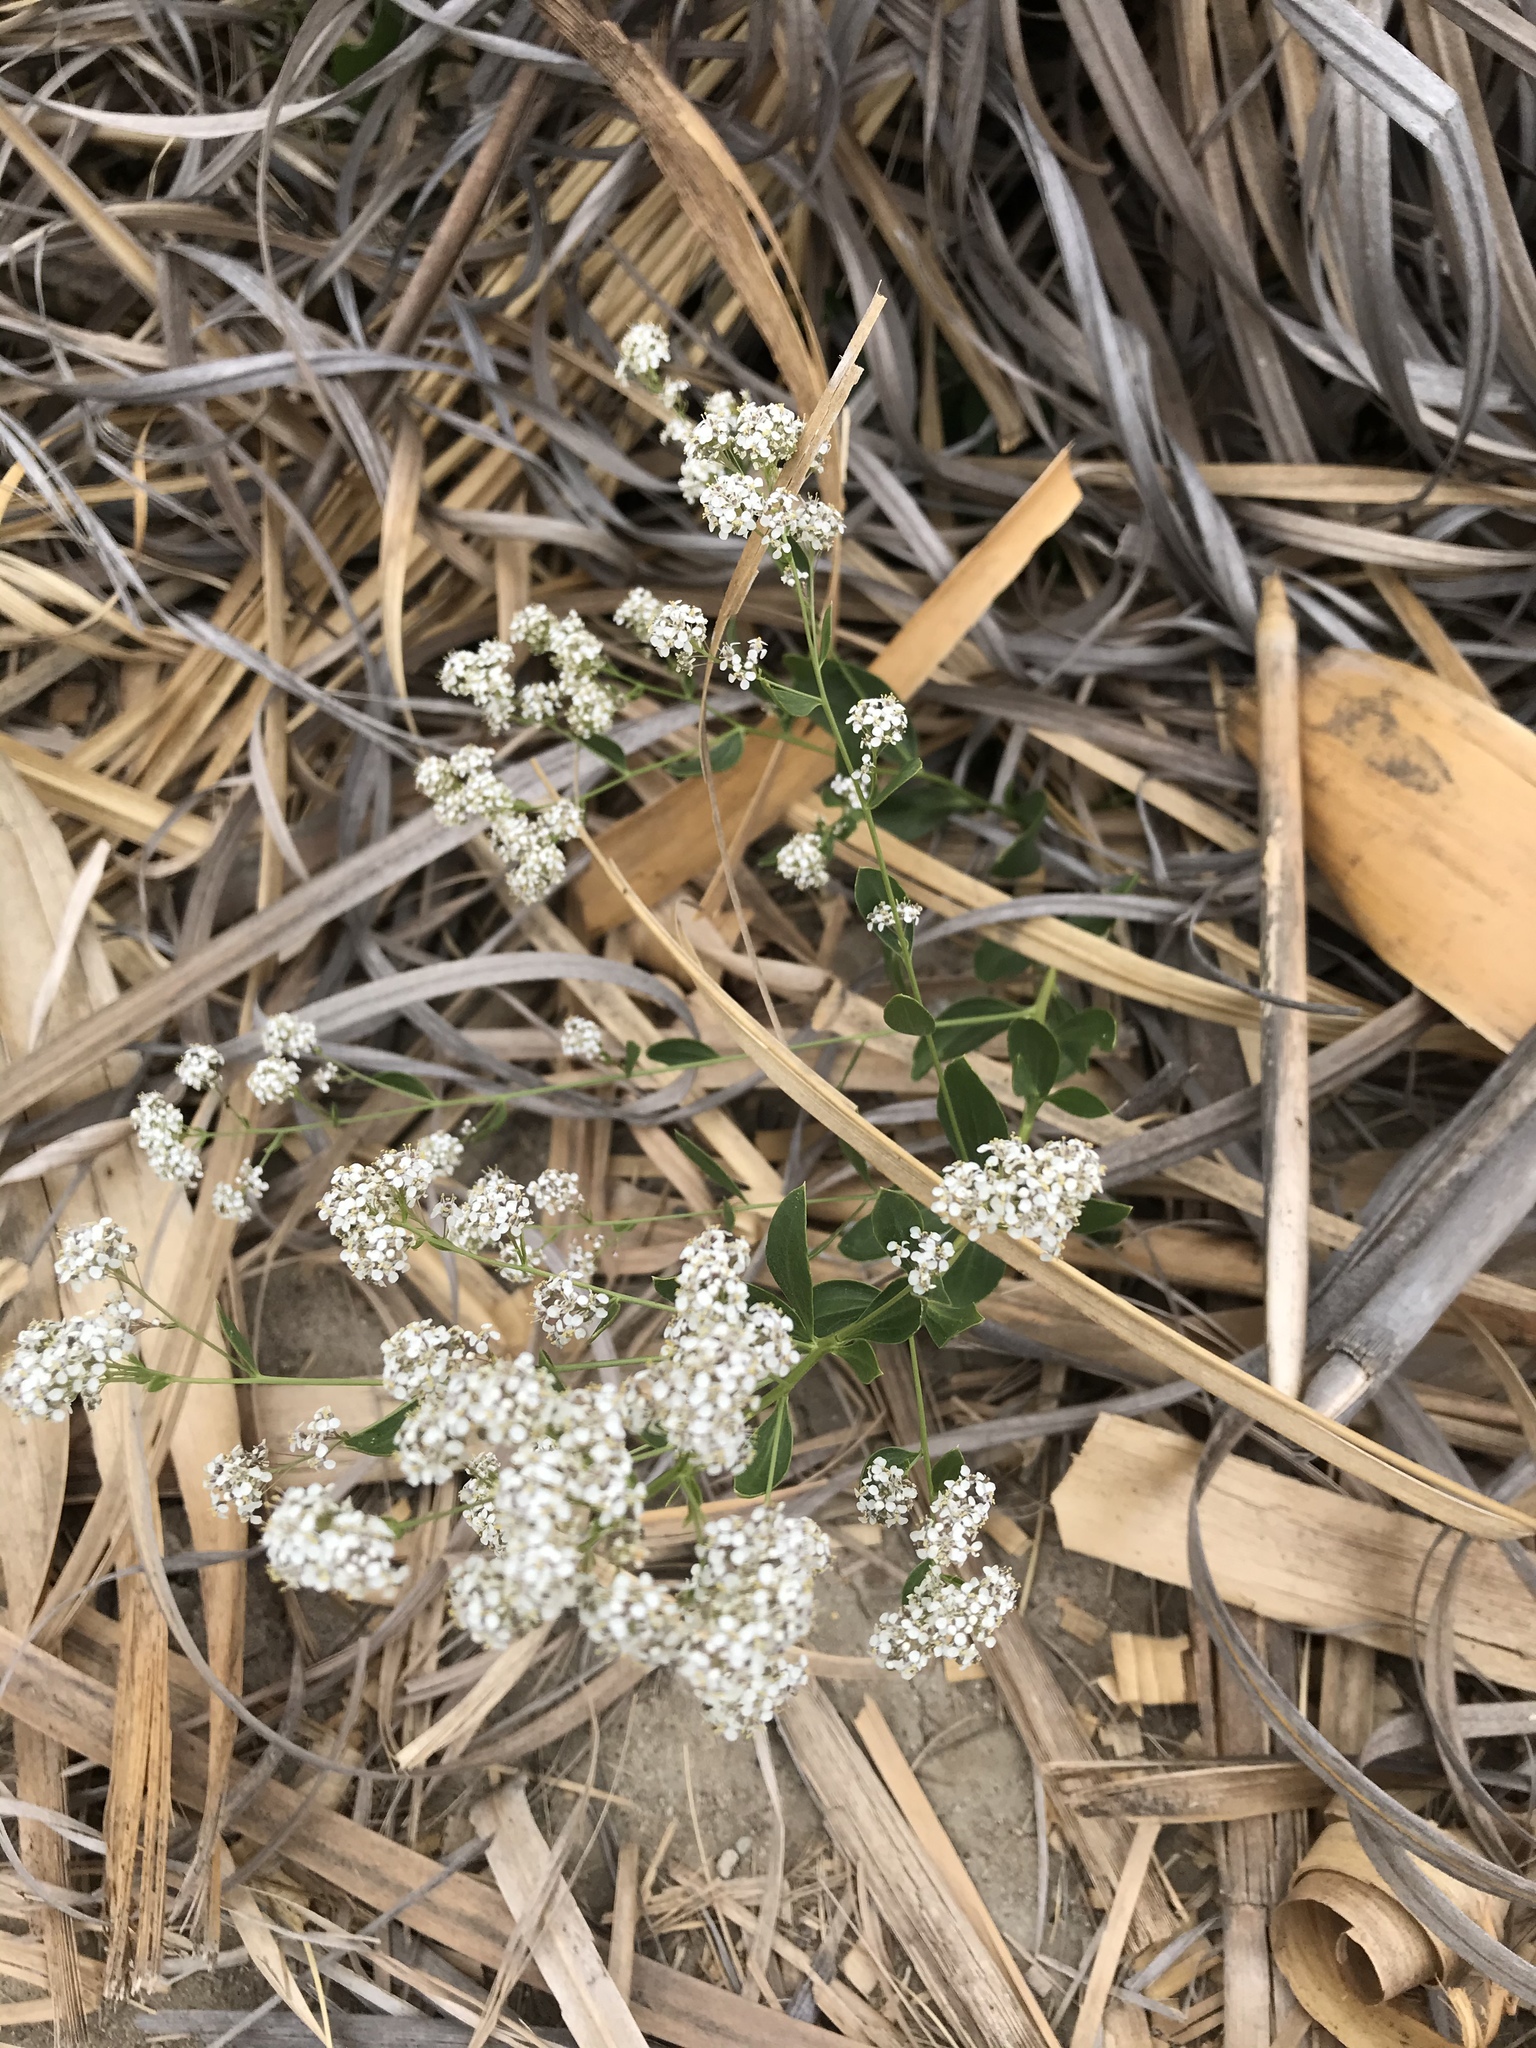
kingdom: Plantae
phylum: Tracheophyta
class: Magnoliopsida
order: Brassicales
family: Brassicaceae
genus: Lepidium
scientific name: Lepidium latifolium
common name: Dittander
